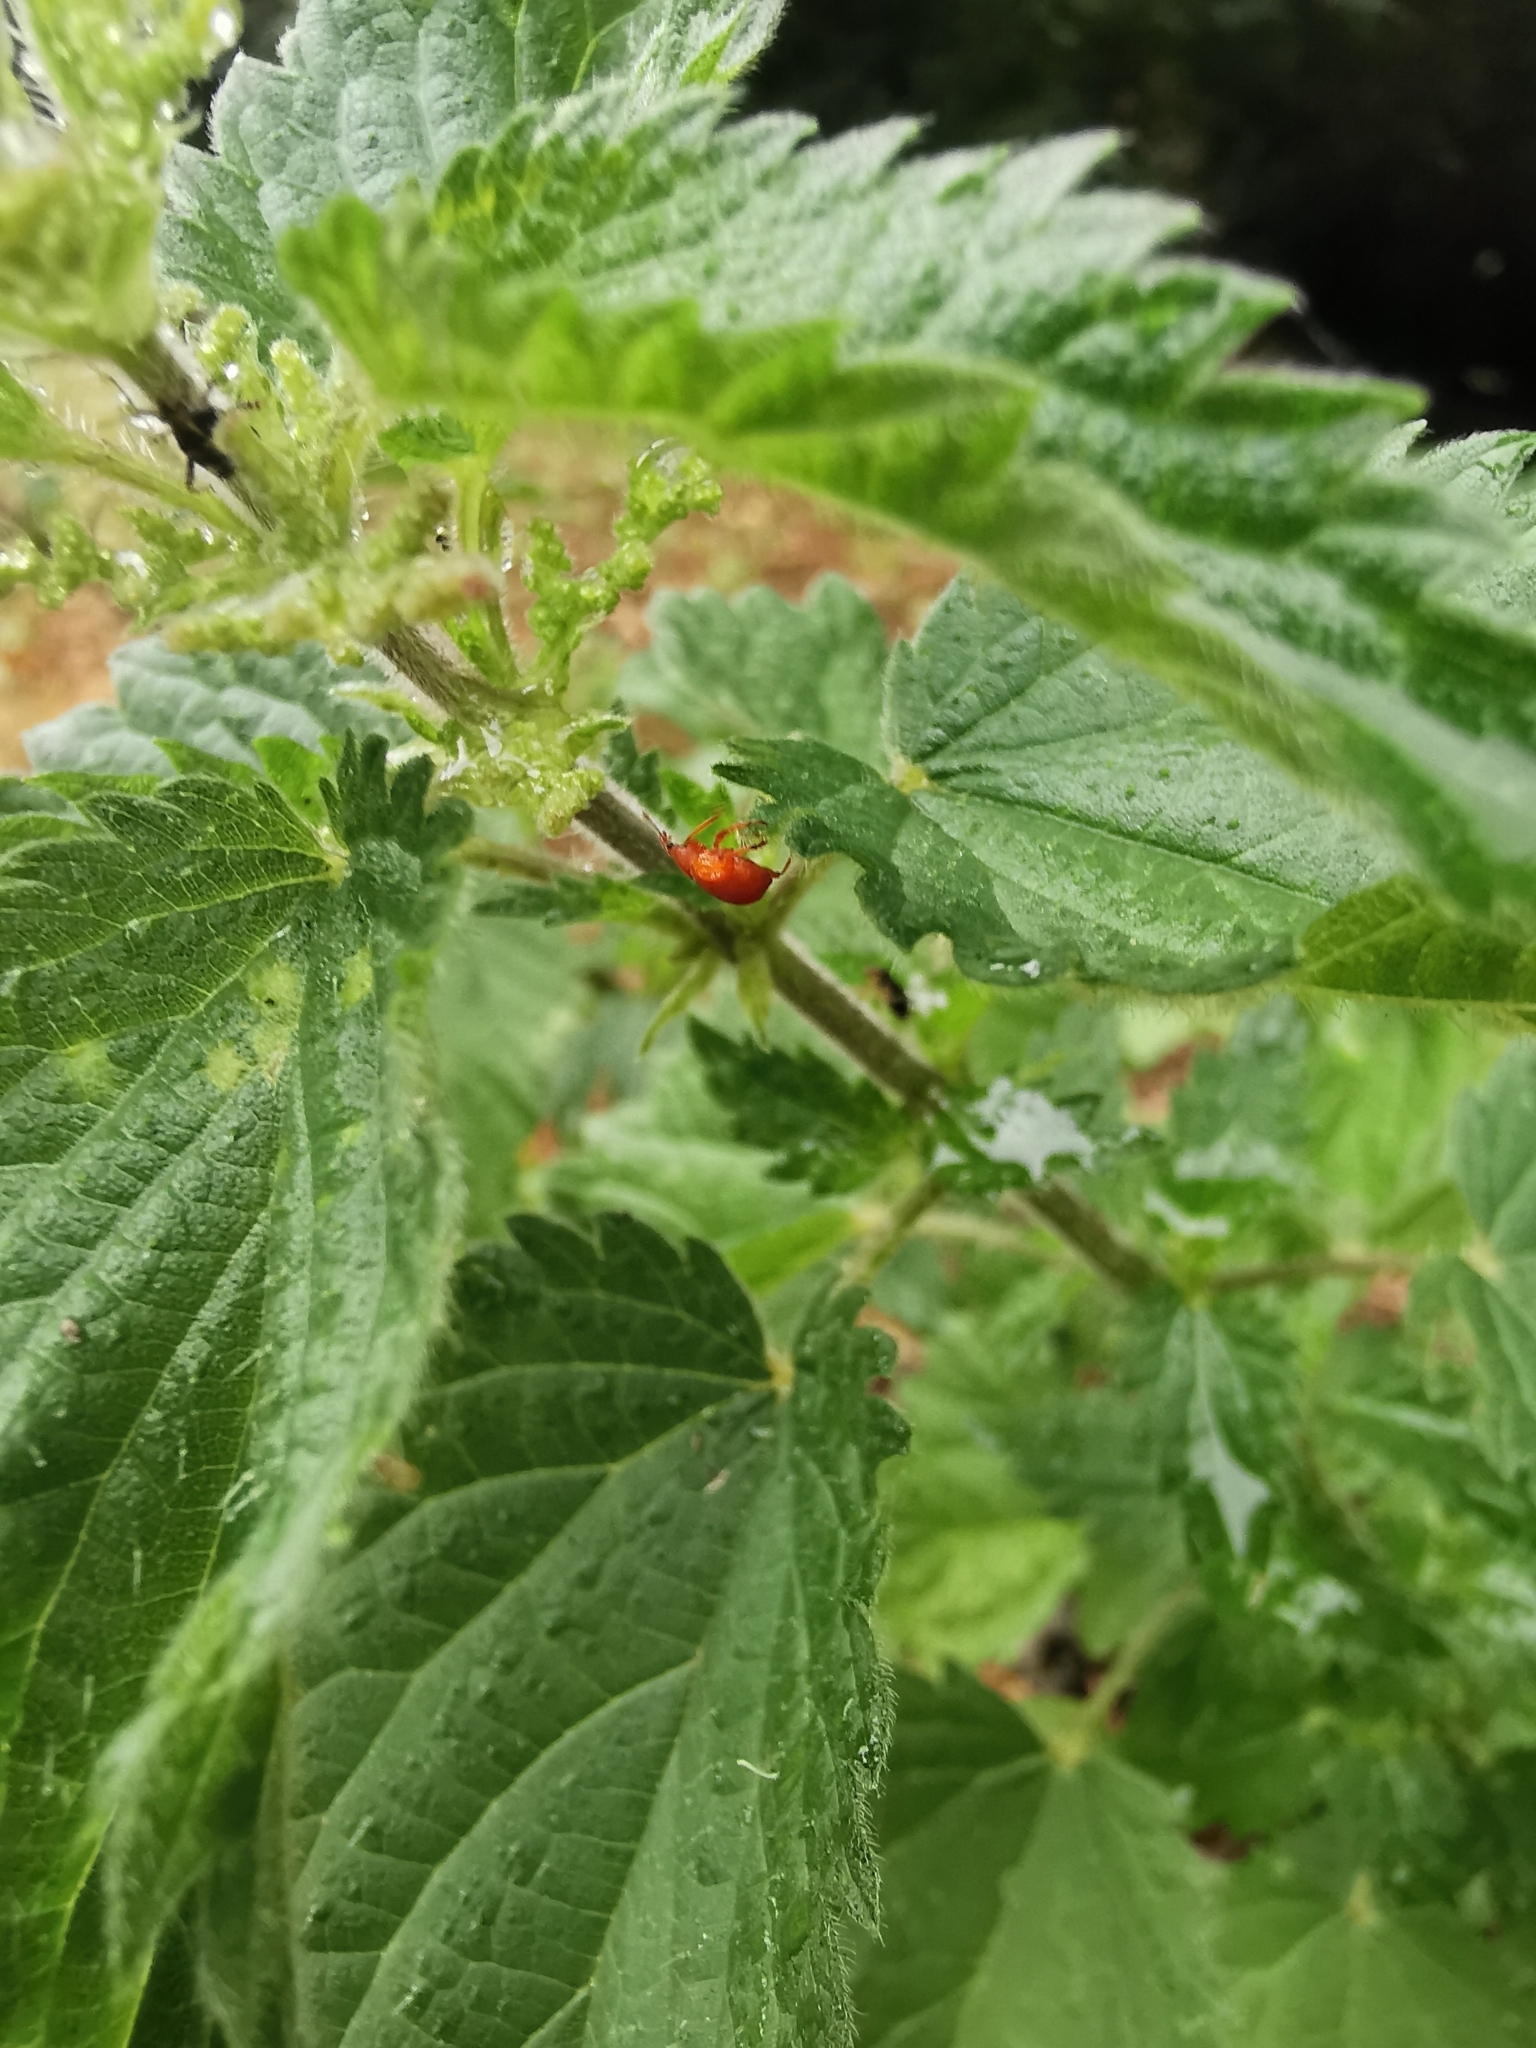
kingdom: Animalia
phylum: Arthropoda
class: Insecta
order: Coleoptera
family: Apionidae
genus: Apion
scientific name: Apion frumentarium
